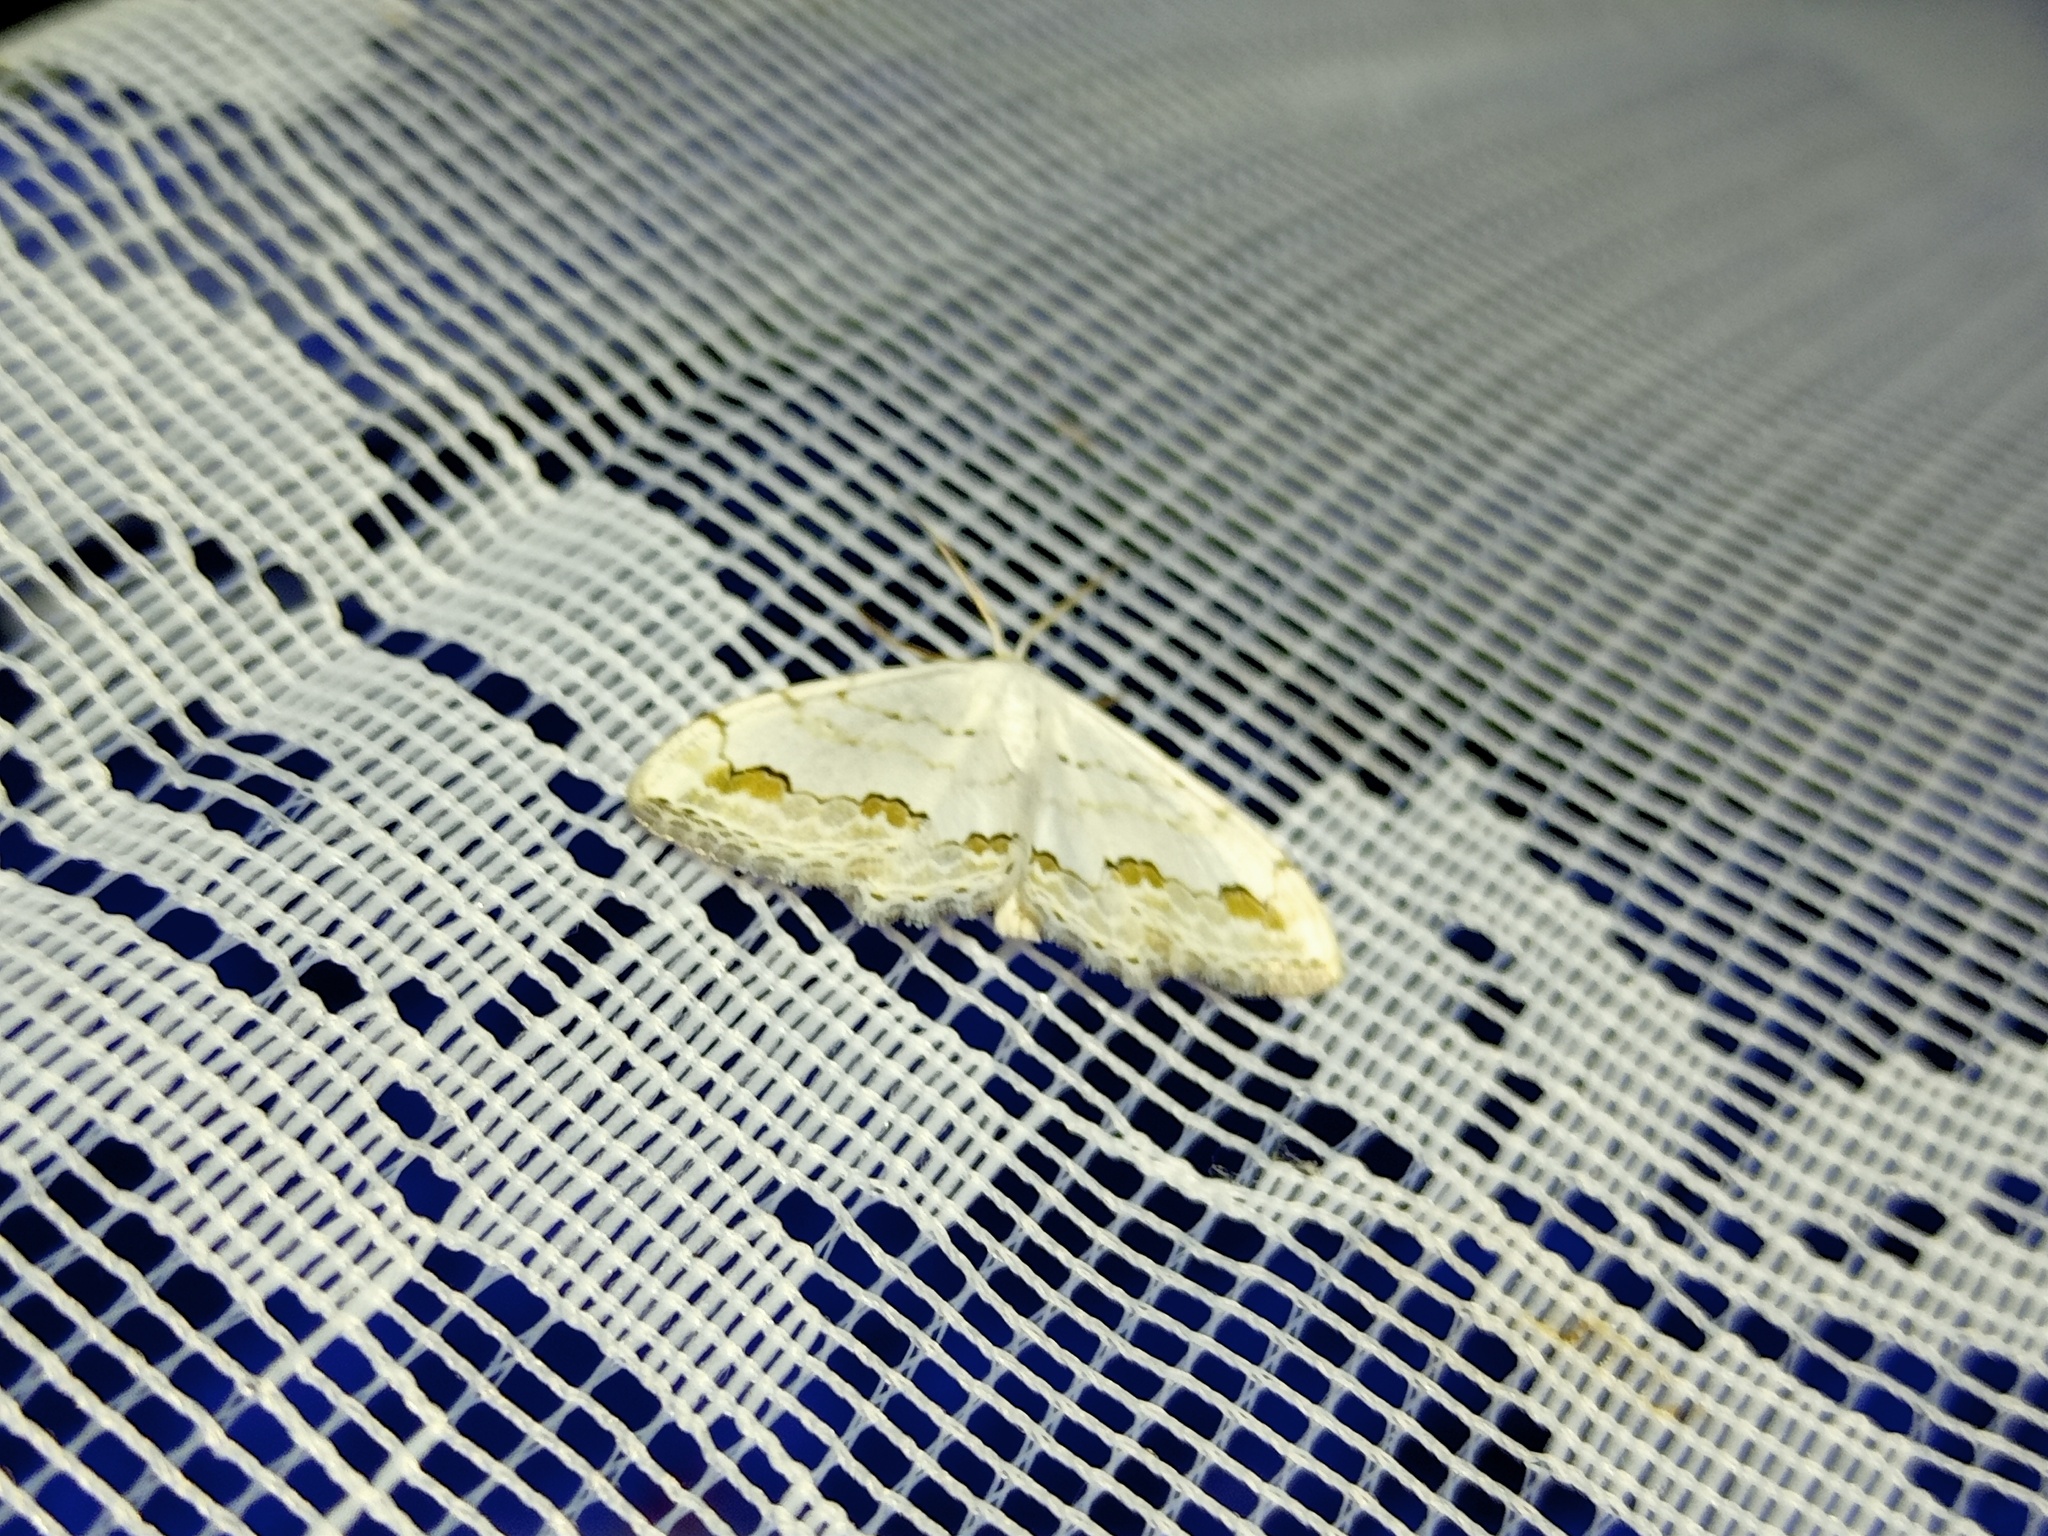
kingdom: Animalia
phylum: Arthropoda
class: Insecta
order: Lepidoptera
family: Geometridae
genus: Scopula
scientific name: Scopula ornata
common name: Lace border
